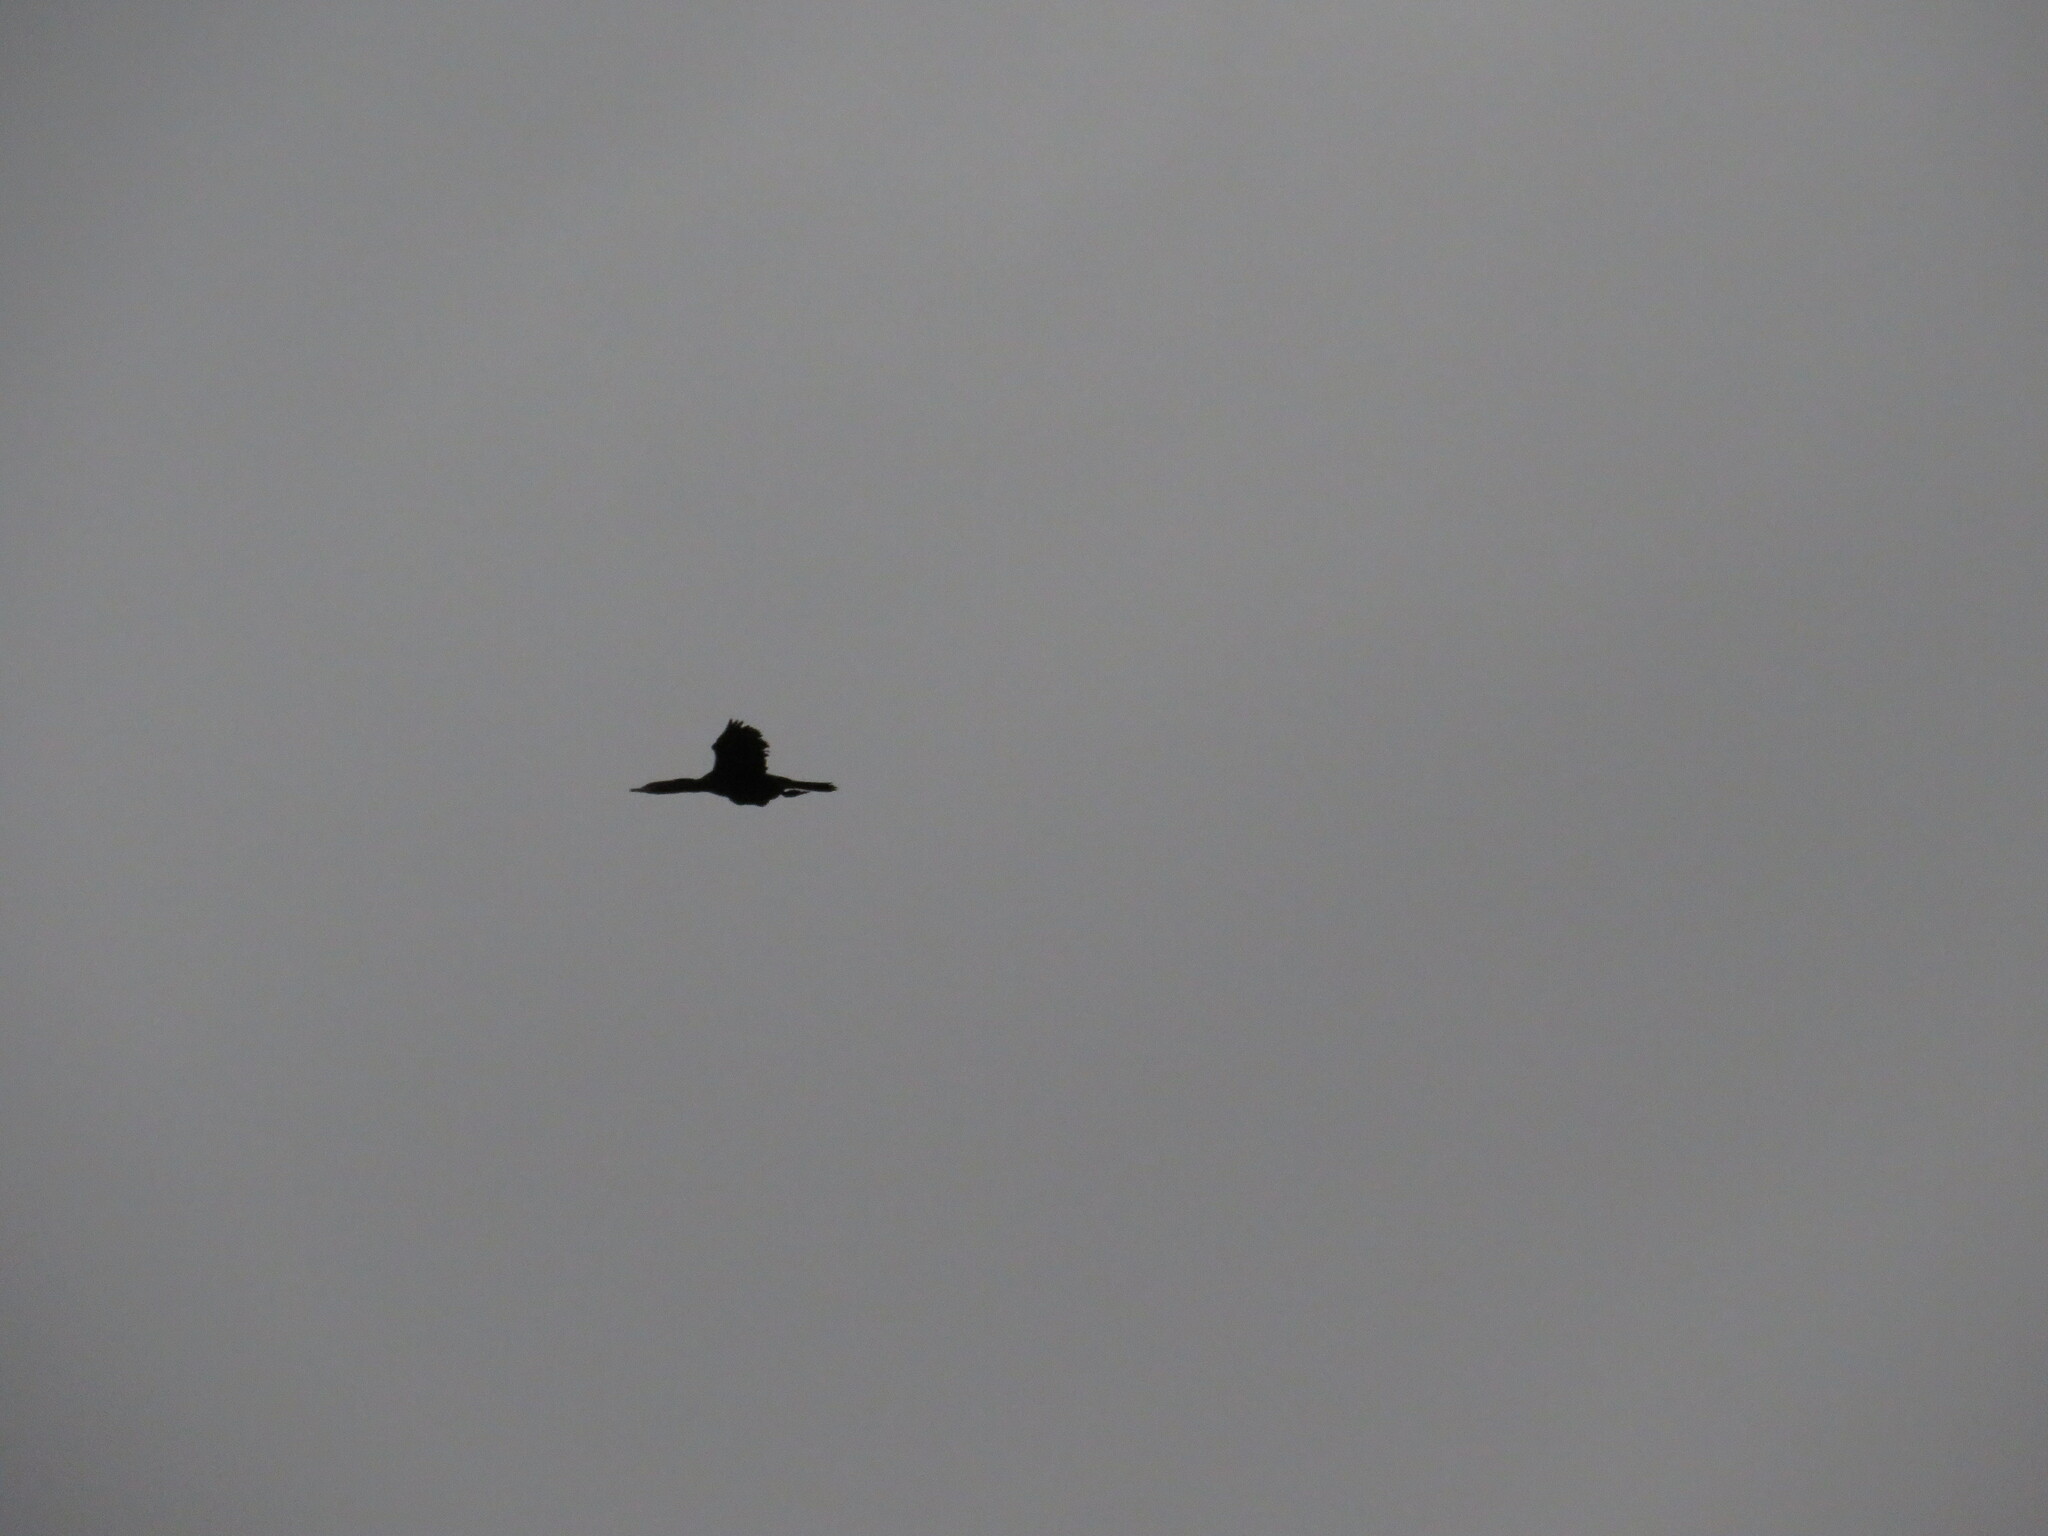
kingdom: Animalia
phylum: Chordata
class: Aves
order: Suliformes
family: Phalacrocoracidae
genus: Phalacrocorax
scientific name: Phalacrocorax brasilianus
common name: Neotropic cormorant
